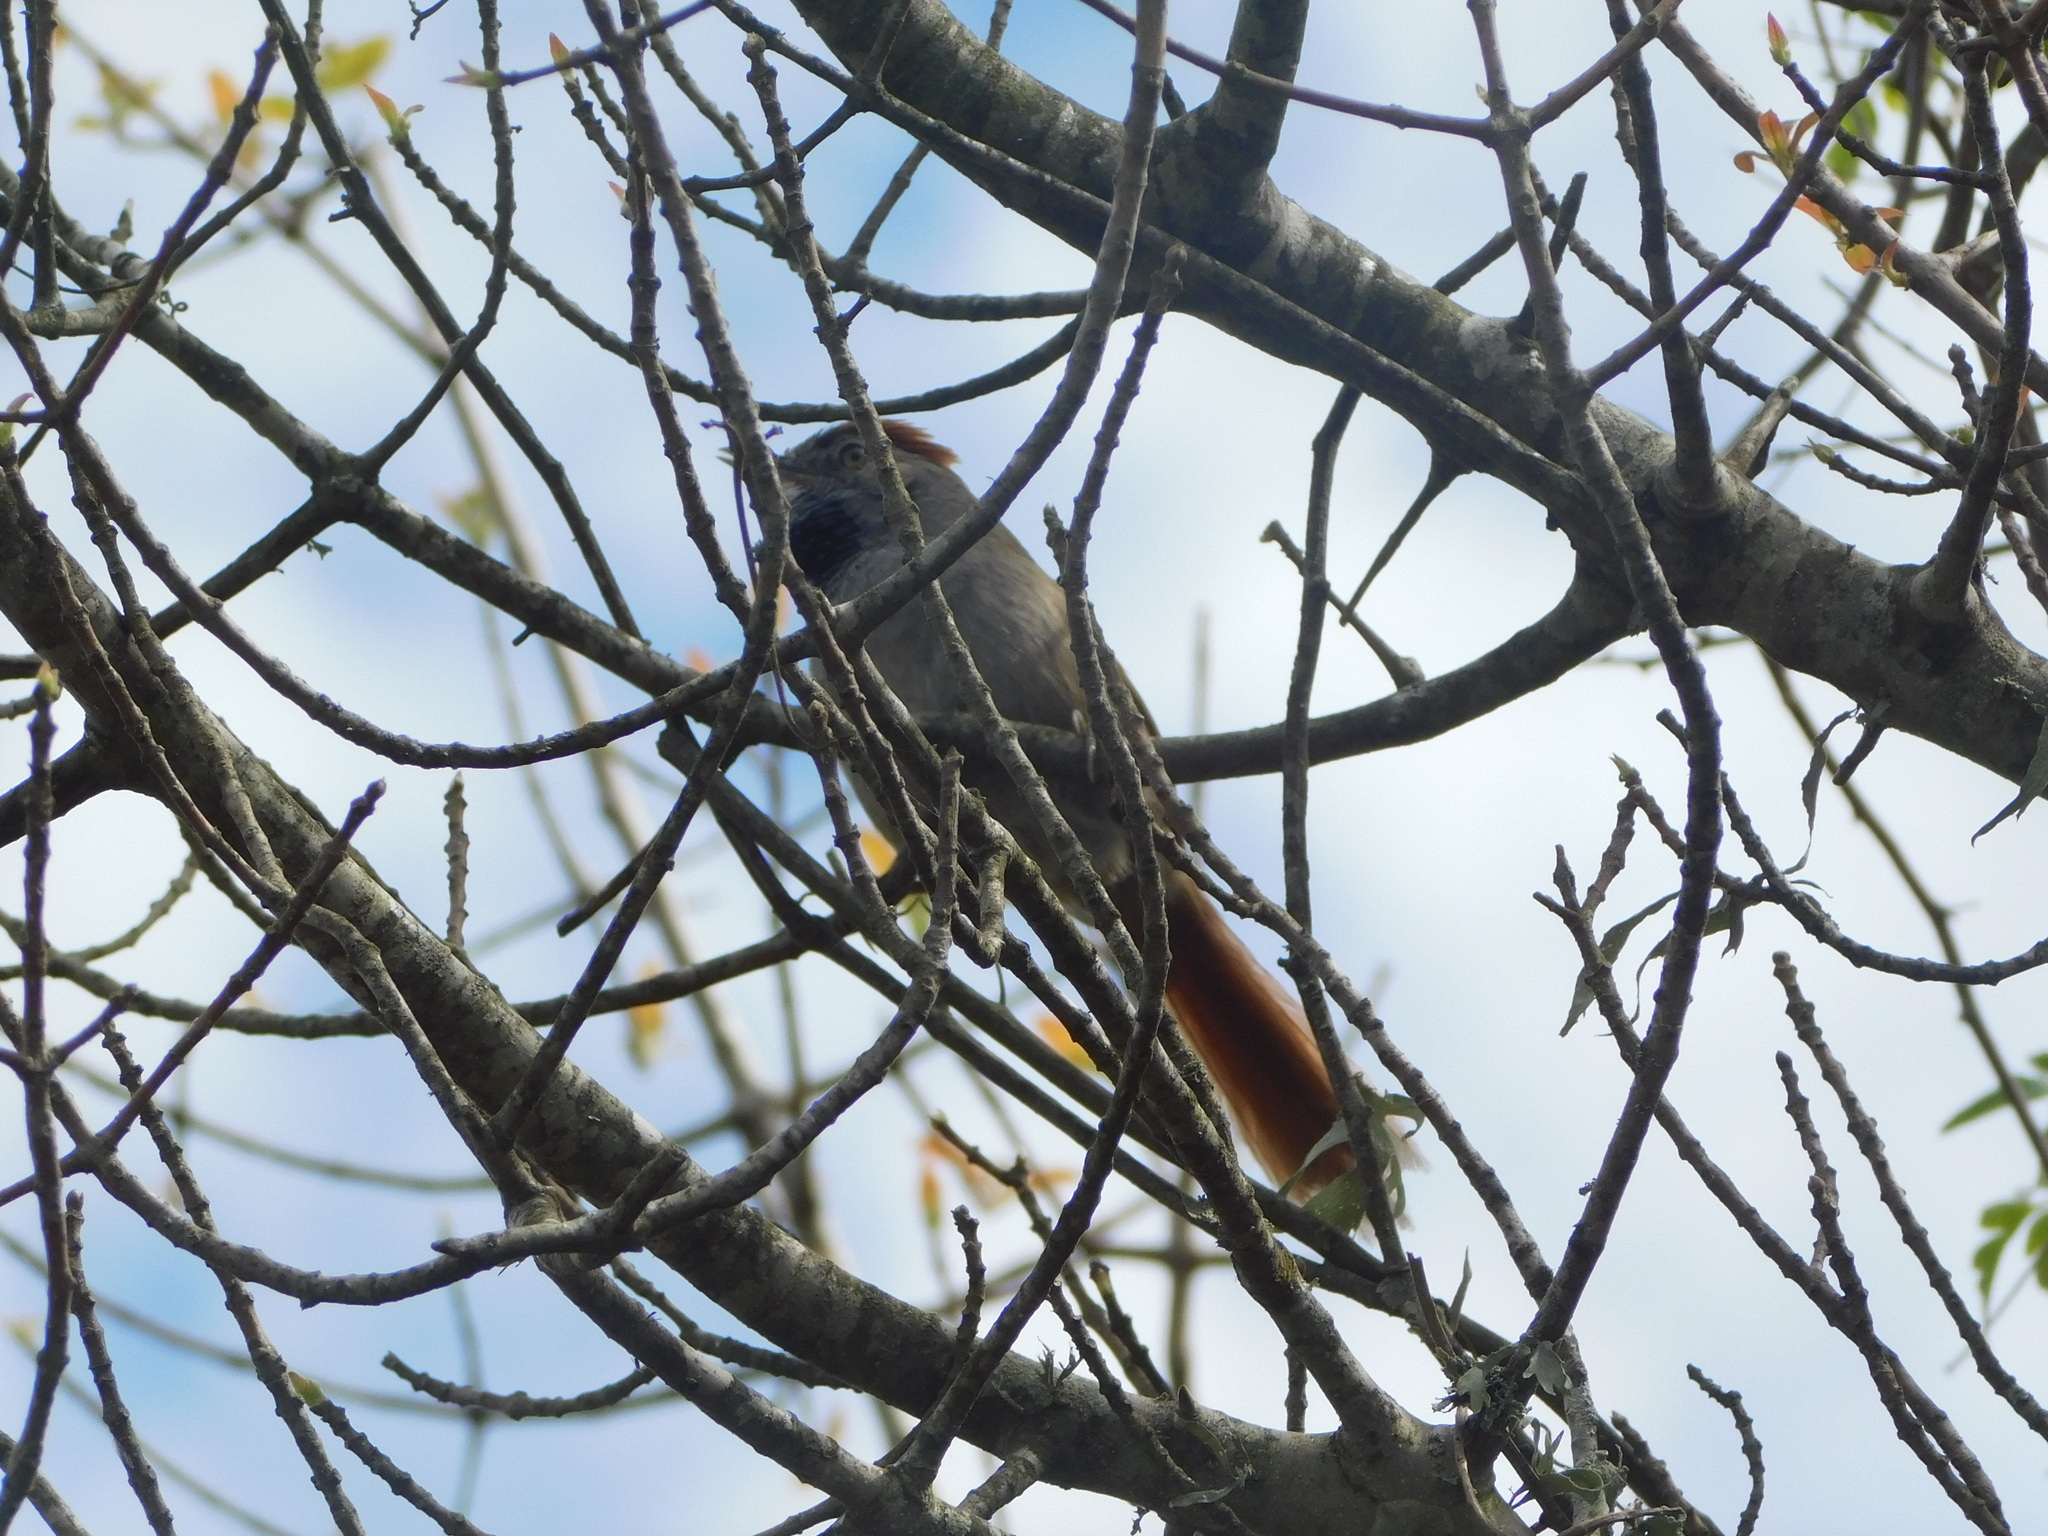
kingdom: Animalia
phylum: Chordata
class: Aves
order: Passeriformes
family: Furnariidae
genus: Synallaxis
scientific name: Synallaxis frontalis
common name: Sooty-fronted spinetail
